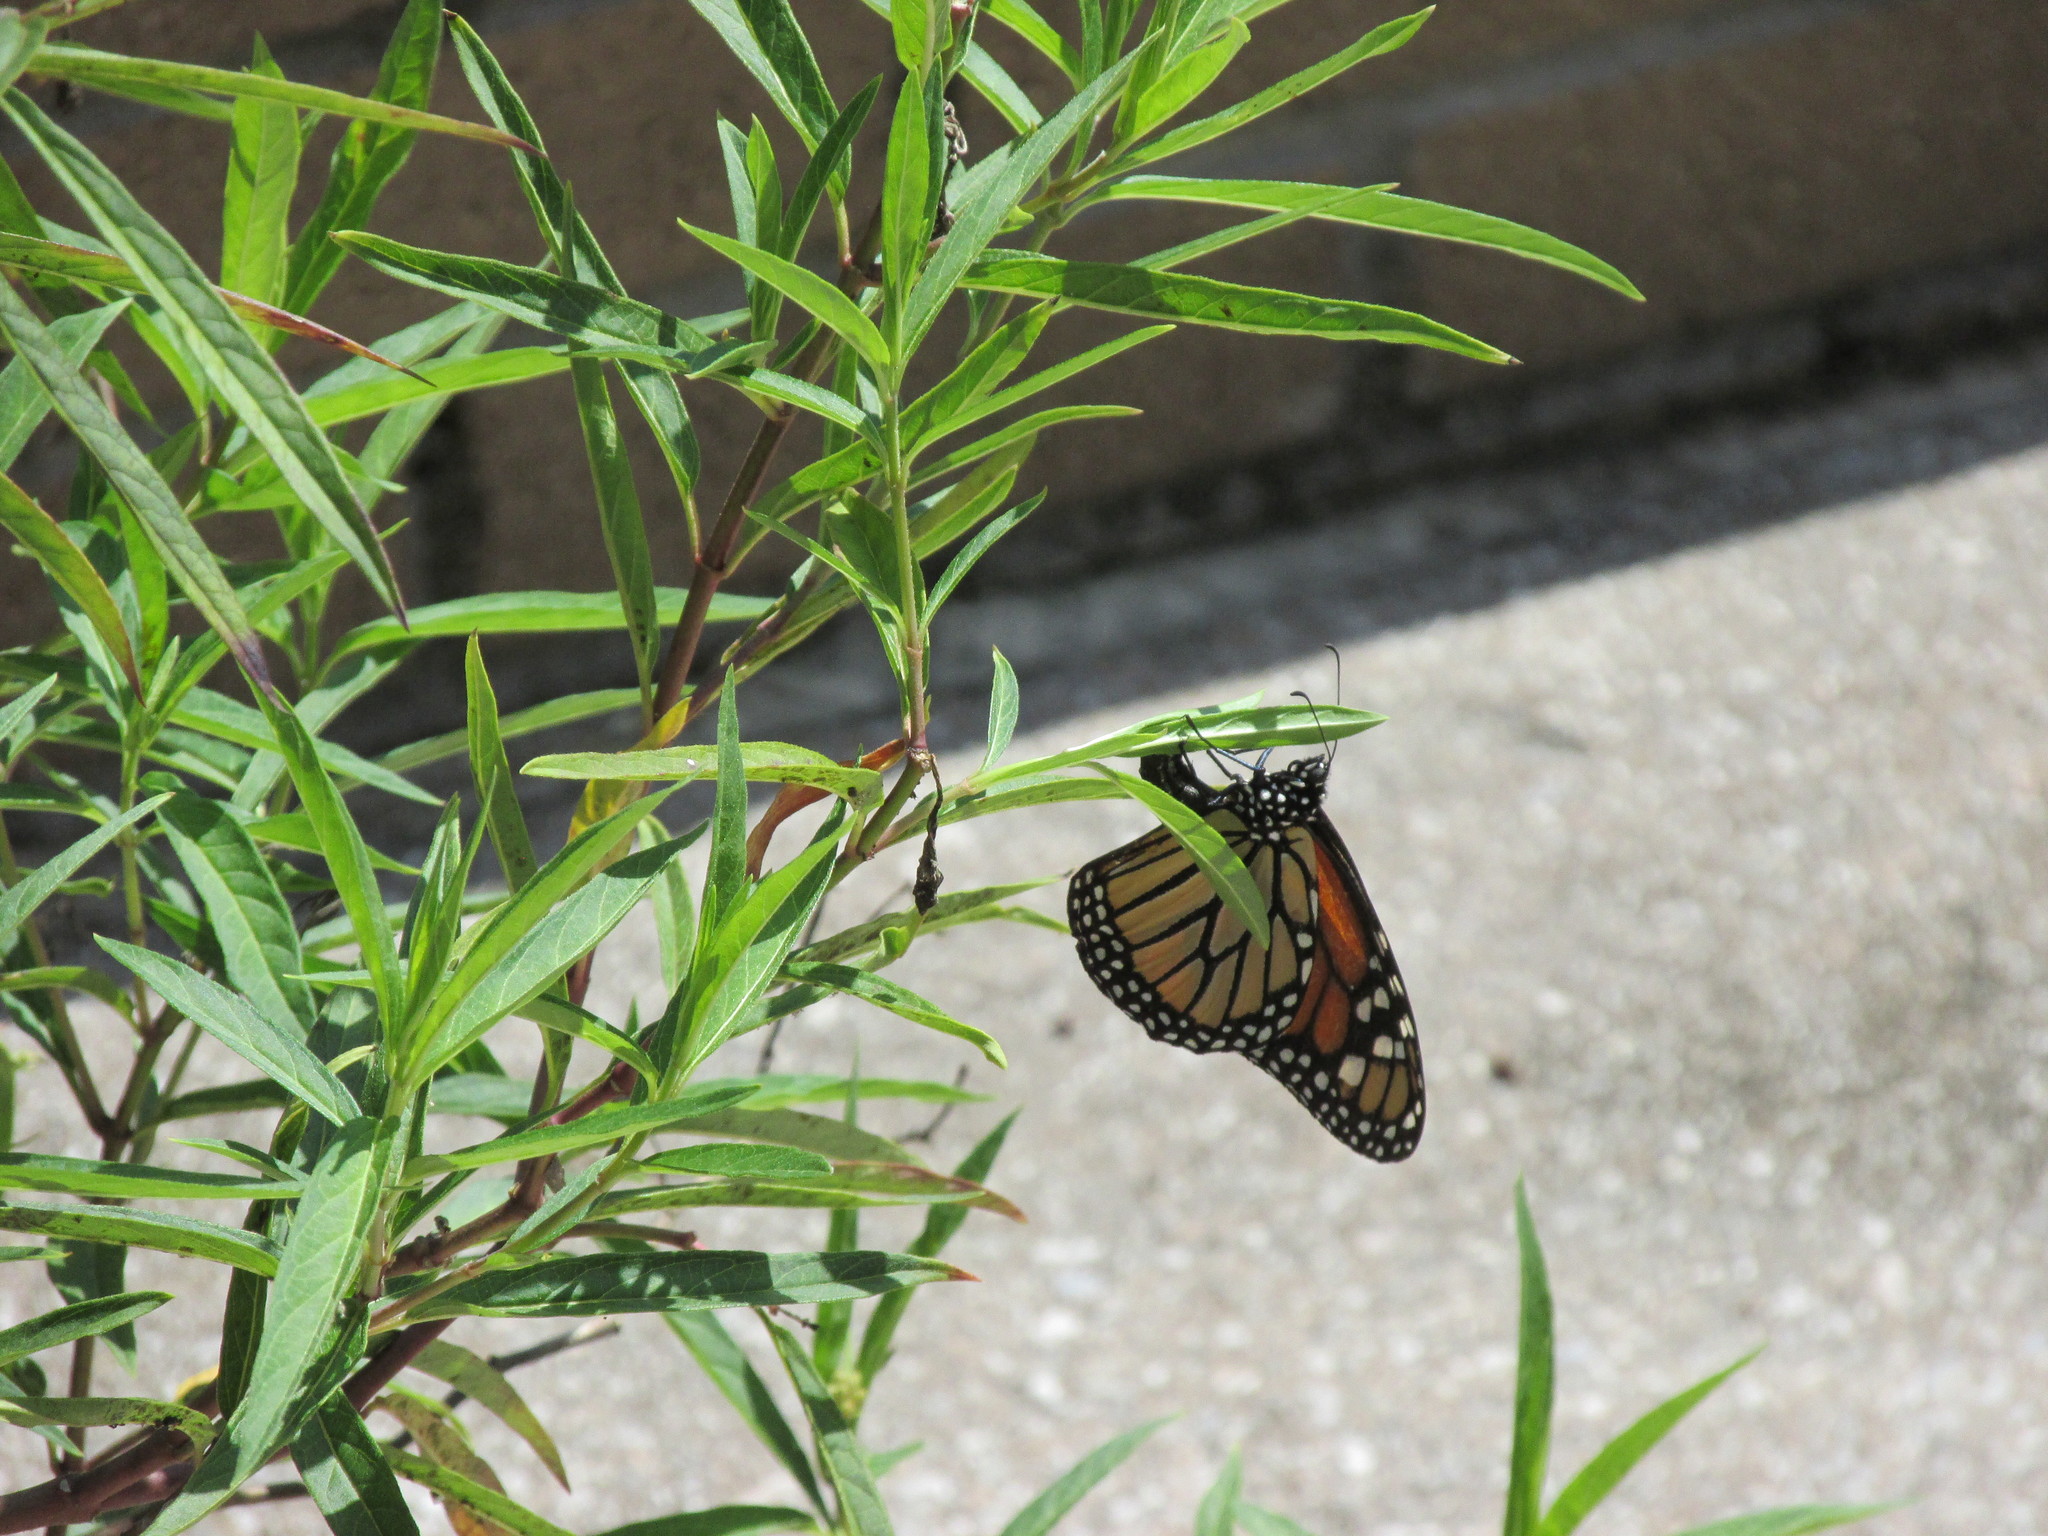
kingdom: Animalia
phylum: Arthropoda
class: Insecta
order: Lepidoptera
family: Nymphalidae
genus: Danaus
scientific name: Danaus plexippus
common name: Monarch
